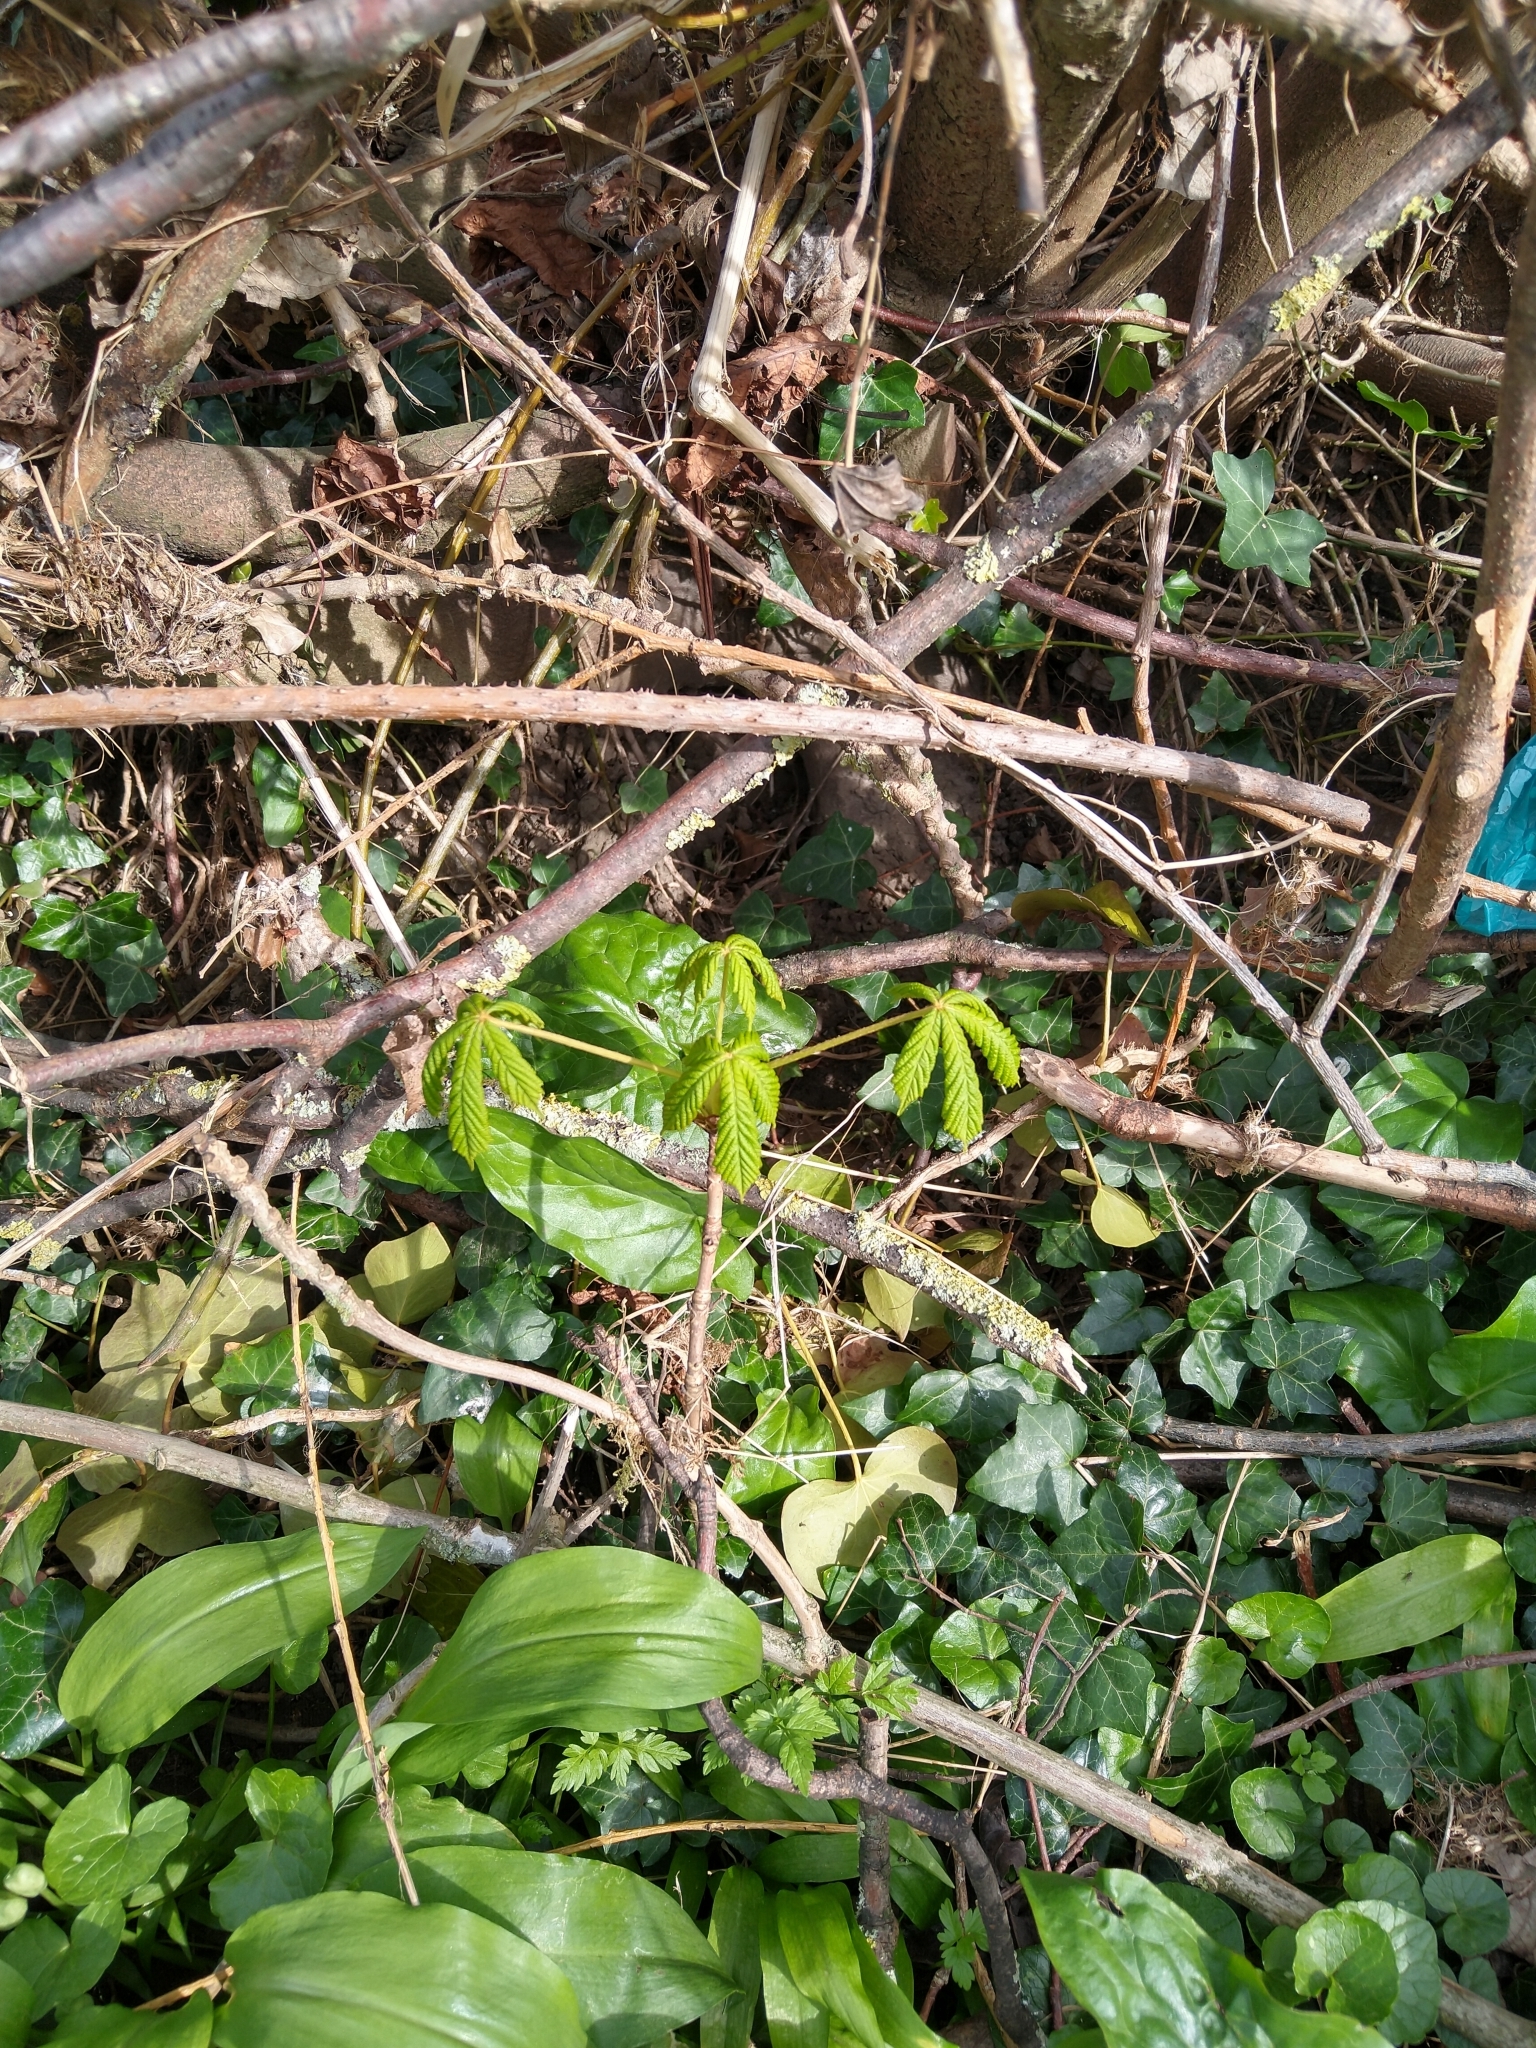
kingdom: Plantae
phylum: Tracheophyta
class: Magnoliopsida
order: Sapindales
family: Sapindaceae
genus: Aesculus
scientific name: Aesculus hippocastanum
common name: Horse-chestnut
